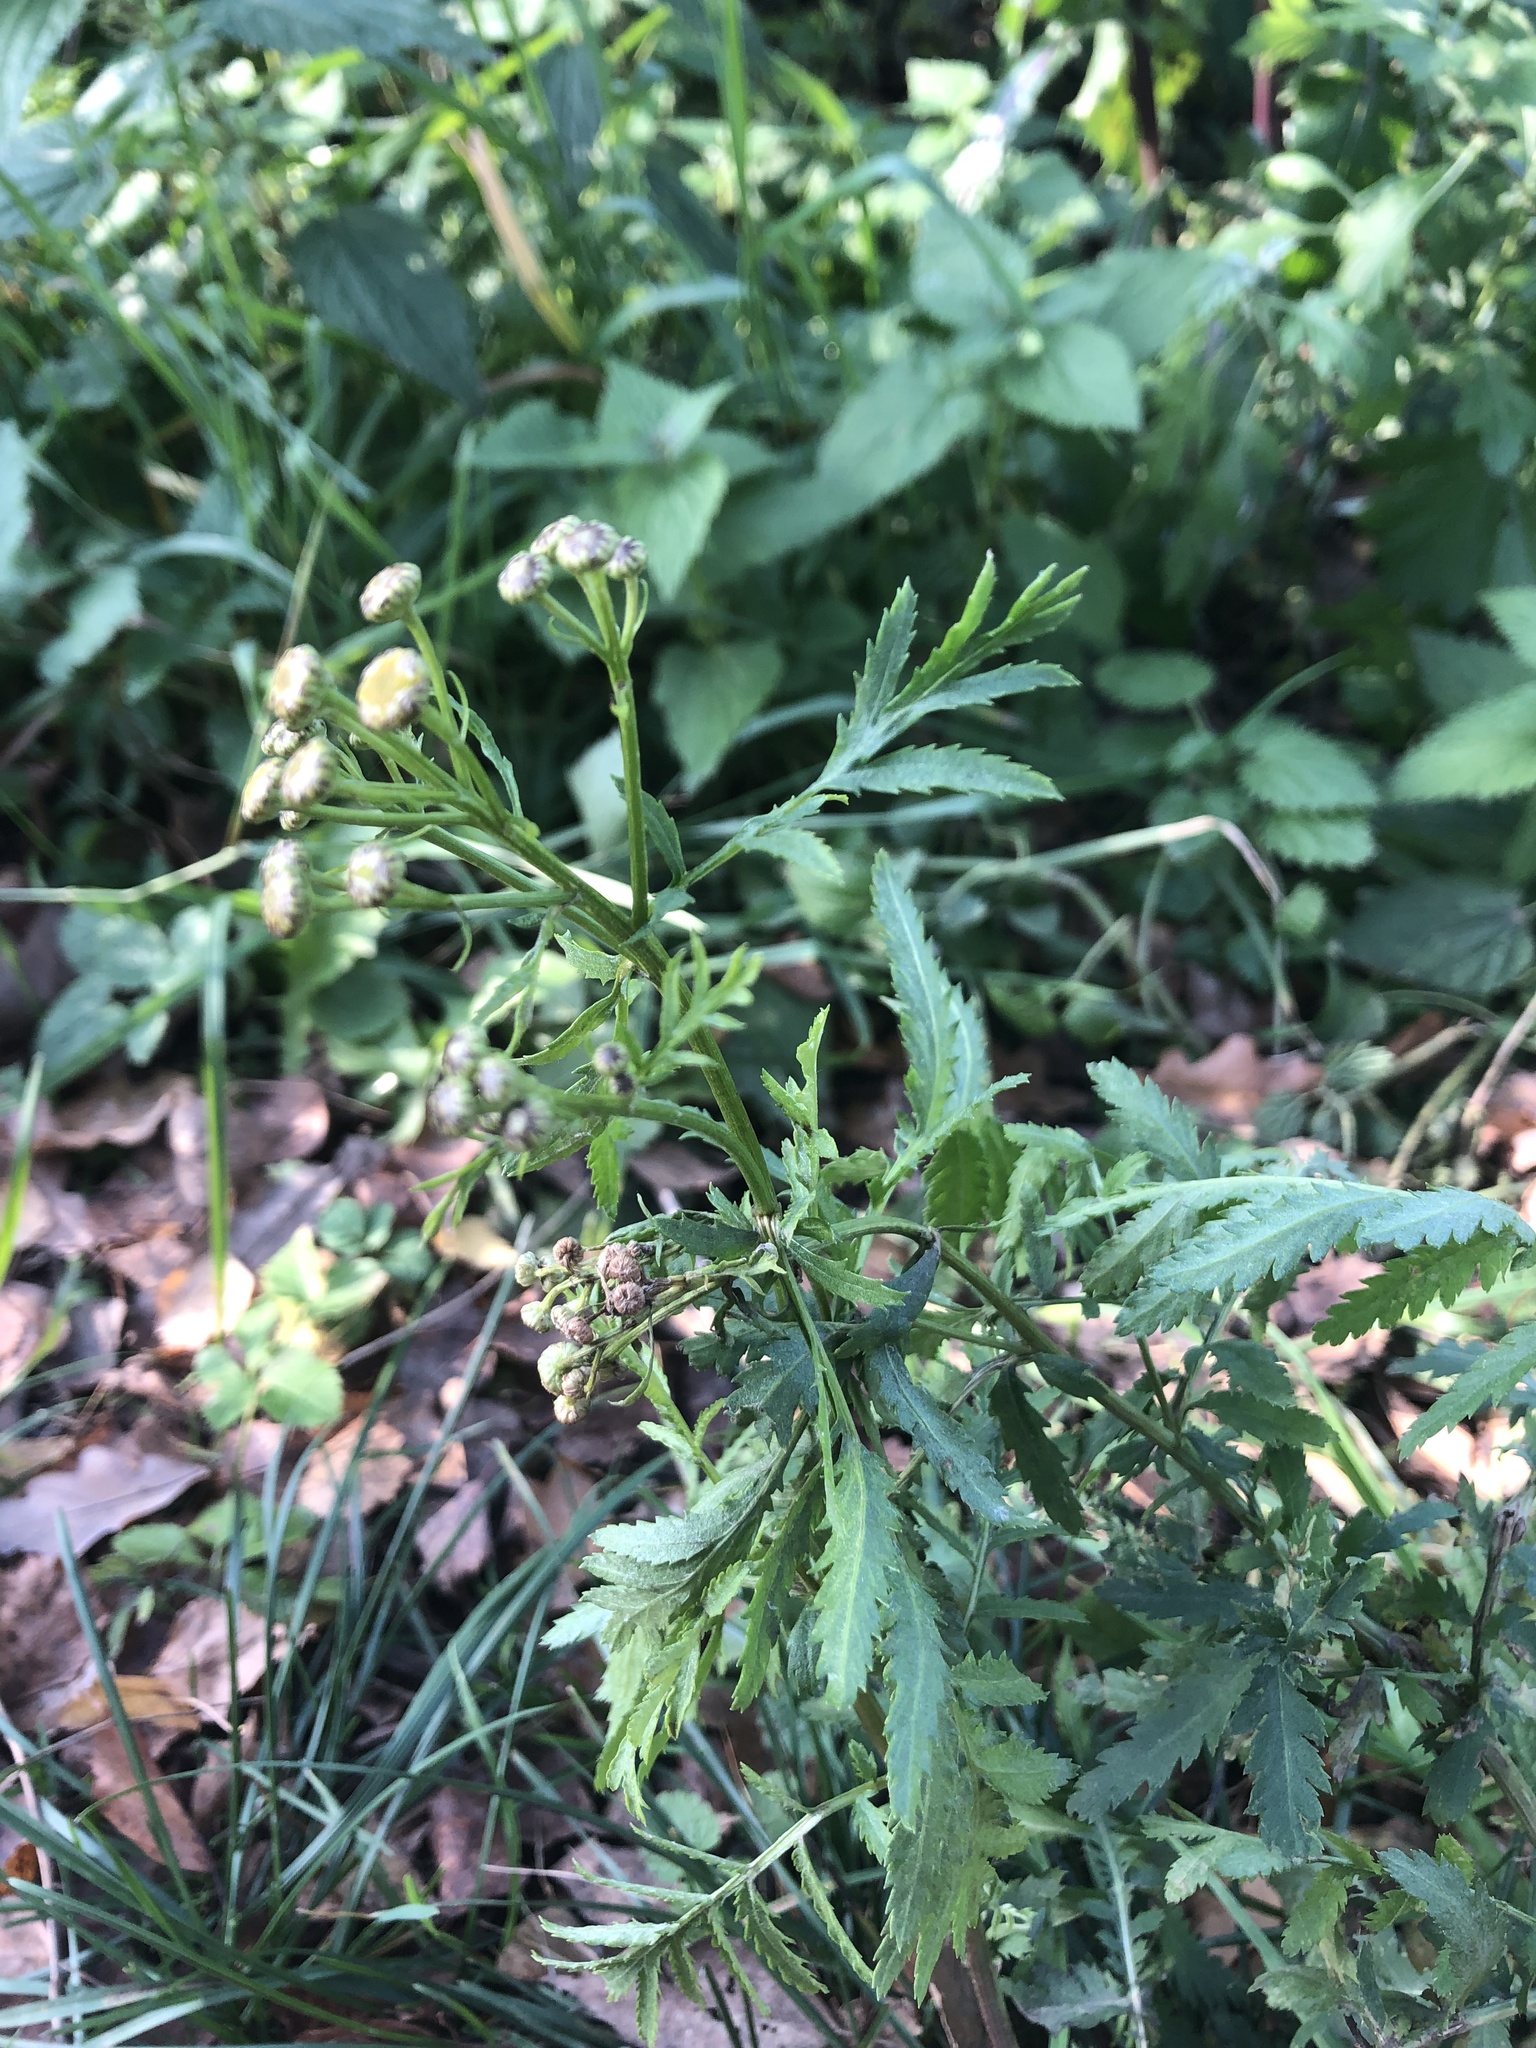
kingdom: Plantae
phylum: Tracheophyta
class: Magnoliopsida
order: Asterales
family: Asteraceae
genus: Tanacetum
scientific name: Tanacetum vulgare
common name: Common tansy
